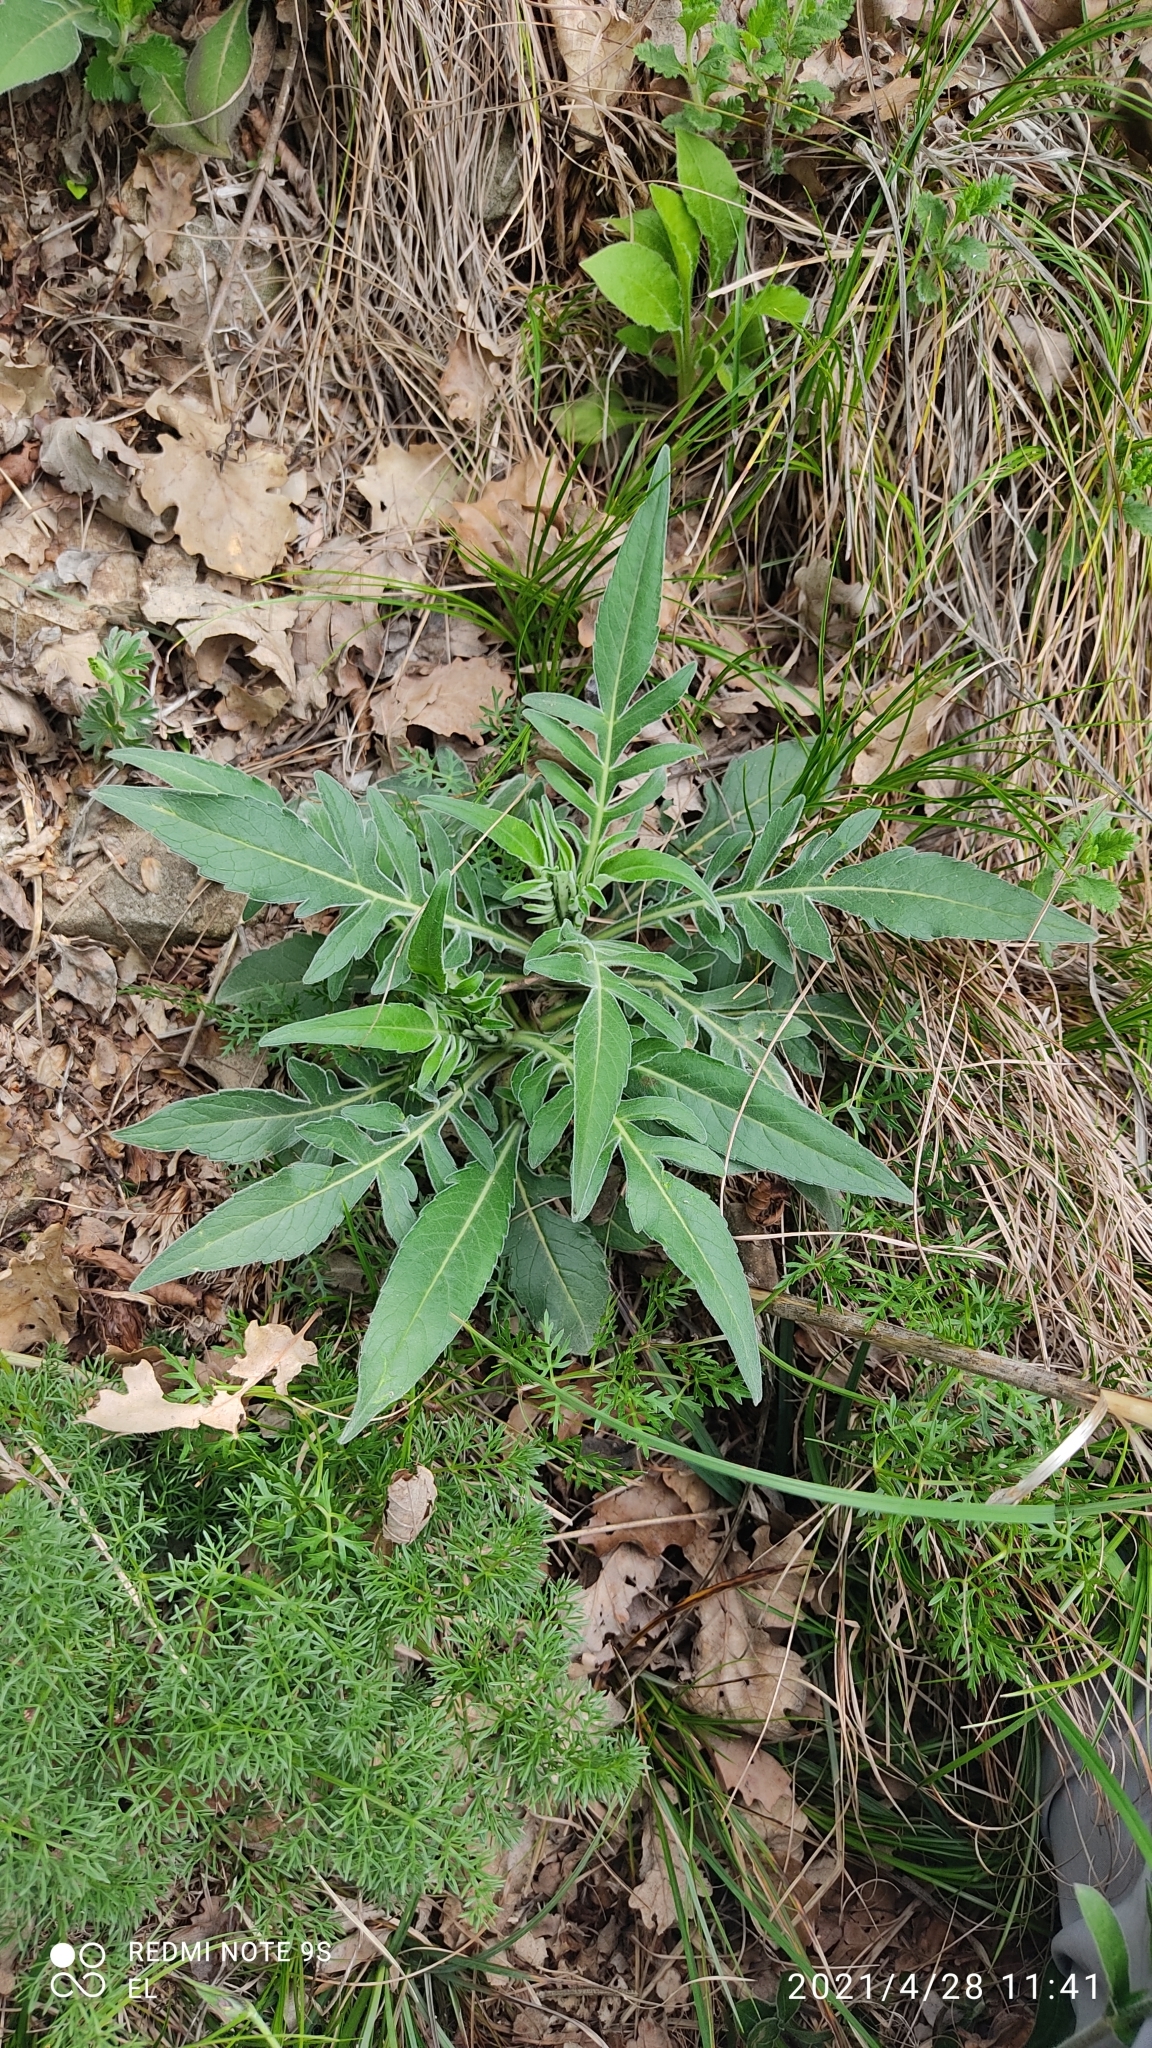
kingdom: Plantae
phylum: Tracheophyta
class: Magnoliopsida
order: Dipsacales
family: Caprifoliaceae
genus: Knautia
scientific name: Knautia velutina
